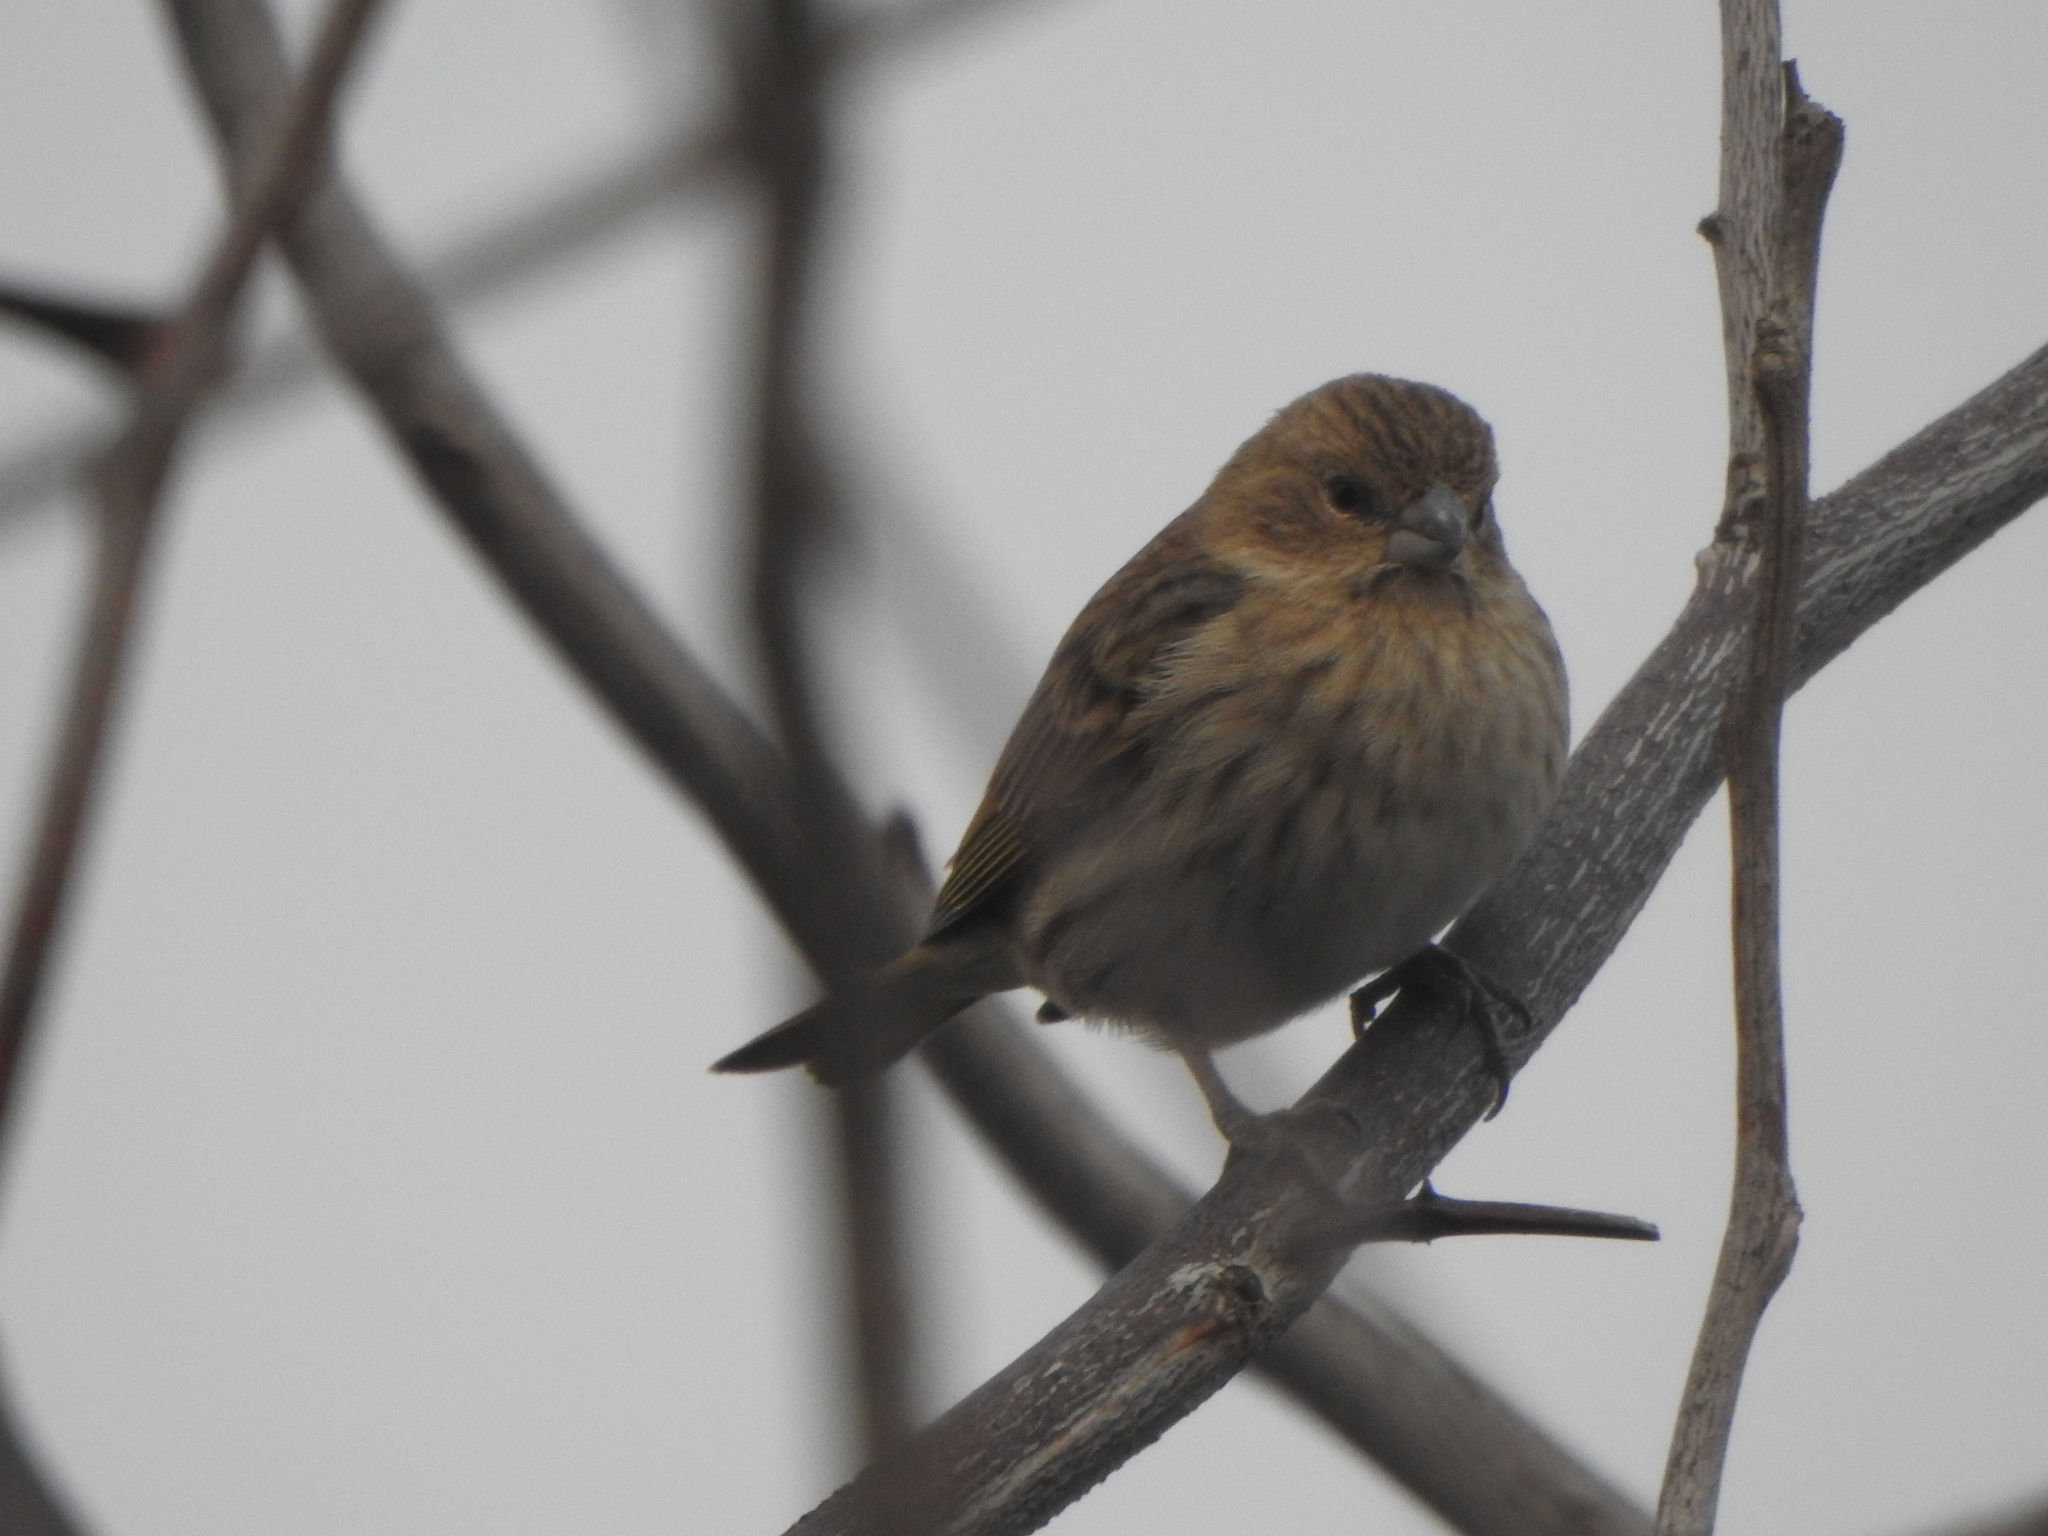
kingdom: Animalia
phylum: Chordata
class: Aves
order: Passeriformes
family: Thraupidae
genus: Sicalis
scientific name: Sicalis flaveola
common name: Saffron finch
